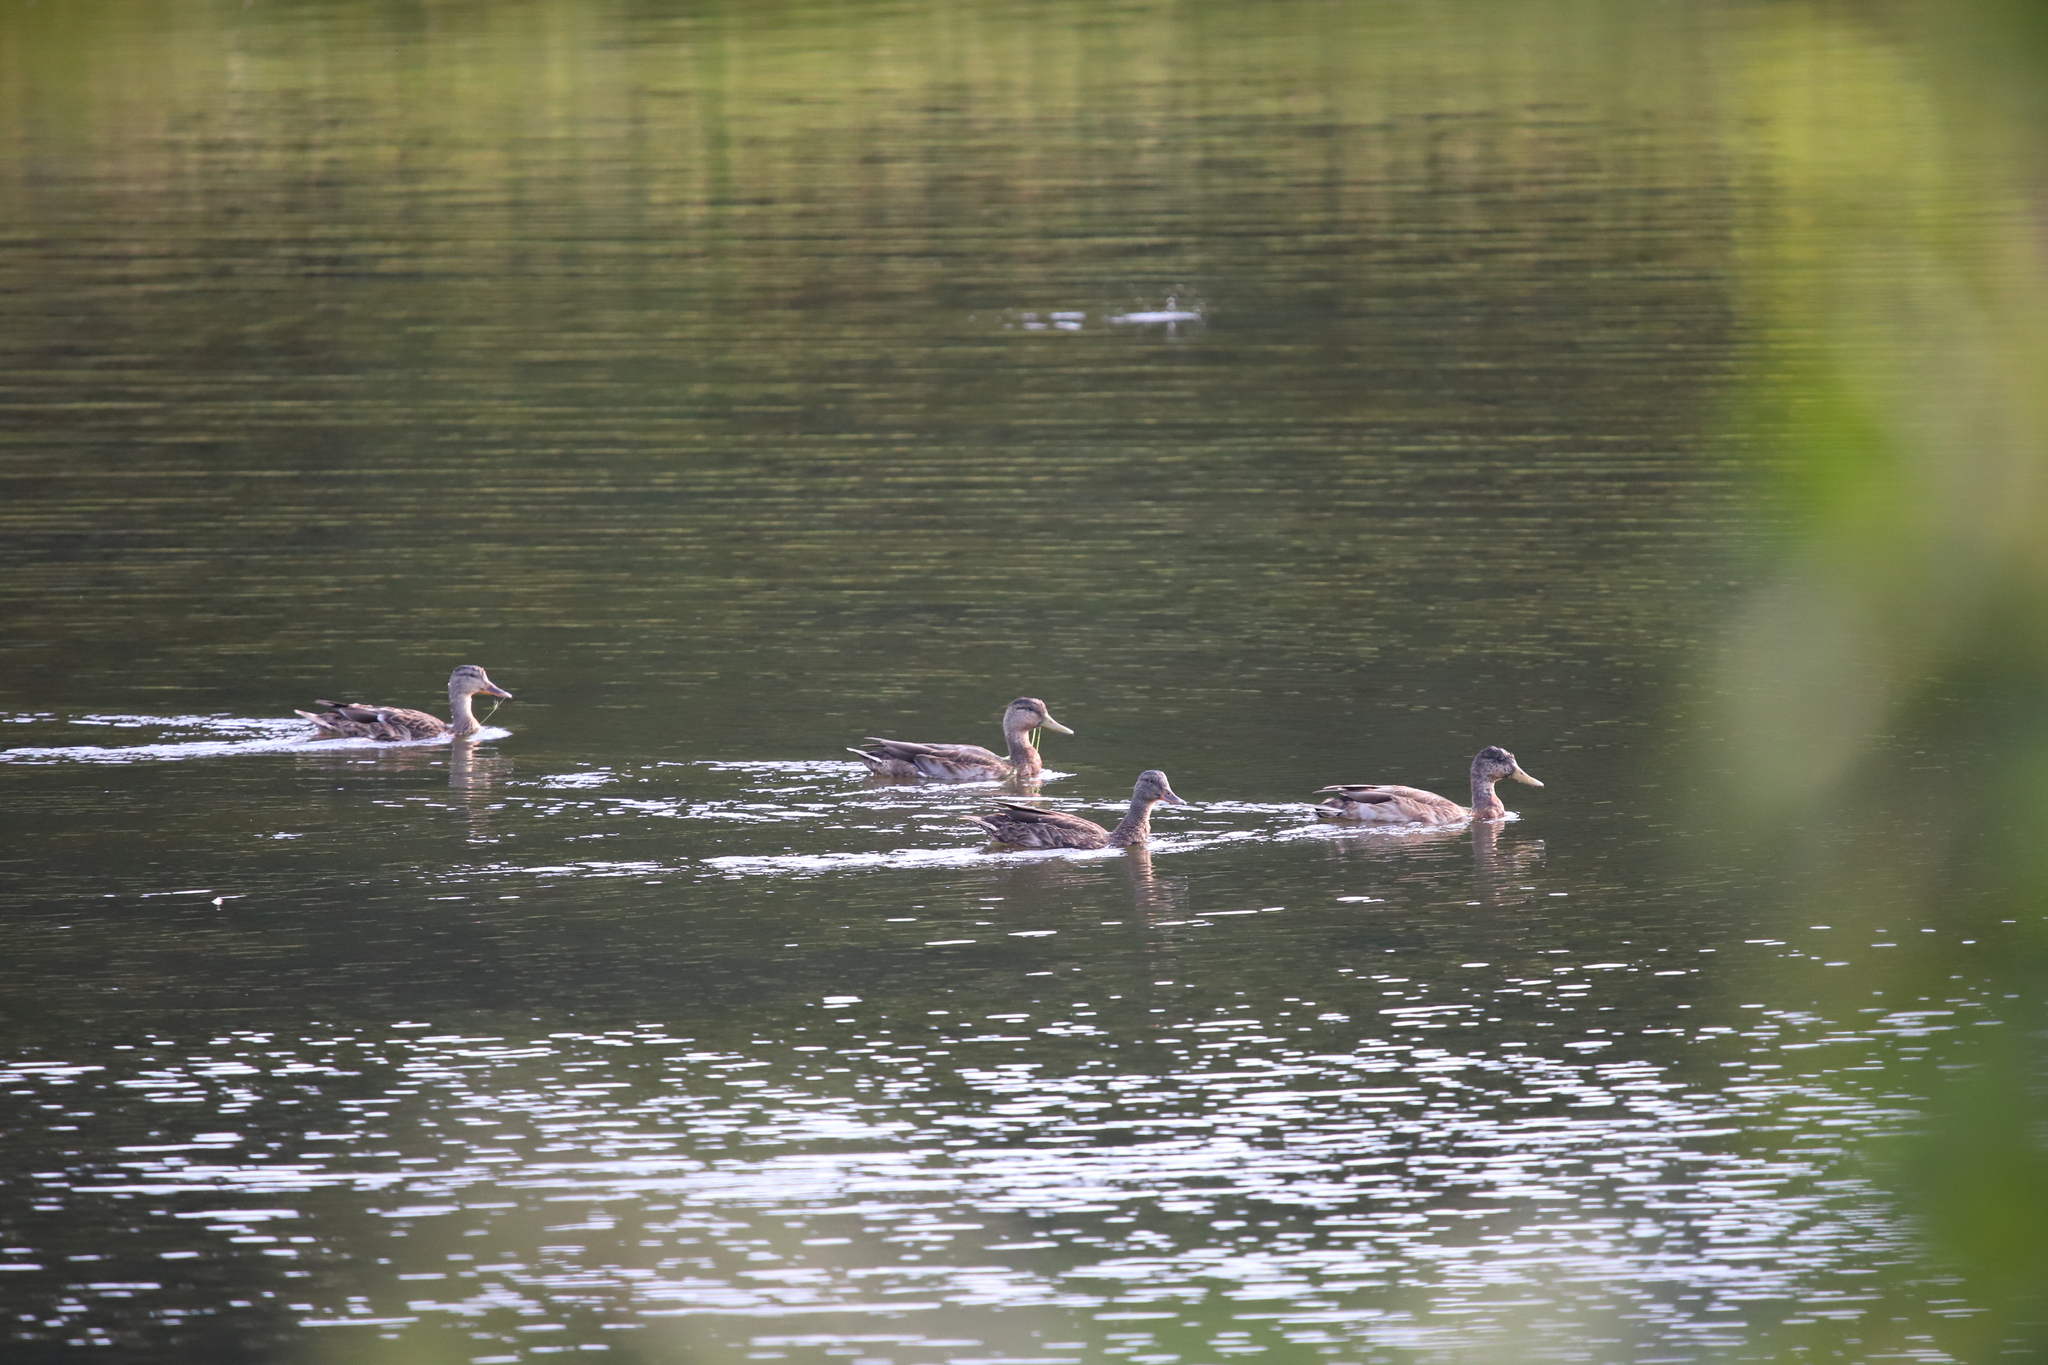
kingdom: Animalia
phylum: Chordata
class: Aves
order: Anseriformes
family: Anatidae
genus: Anas
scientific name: Anas platyrhynchos
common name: Mallard
